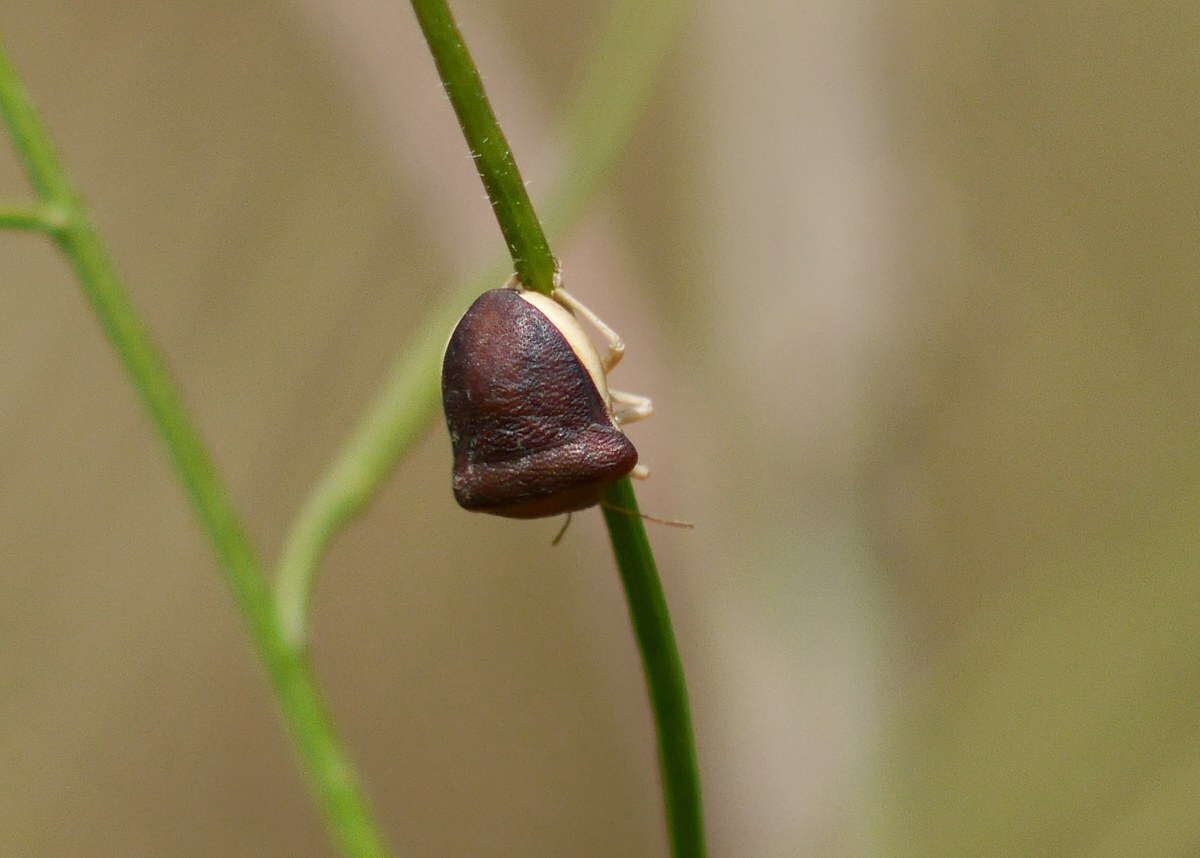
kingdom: Animalia
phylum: Arthropoda
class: Insecta
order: Hemiptera
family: Pentatomidae
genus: Ventocoris
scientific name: Ventocoris rusticus
